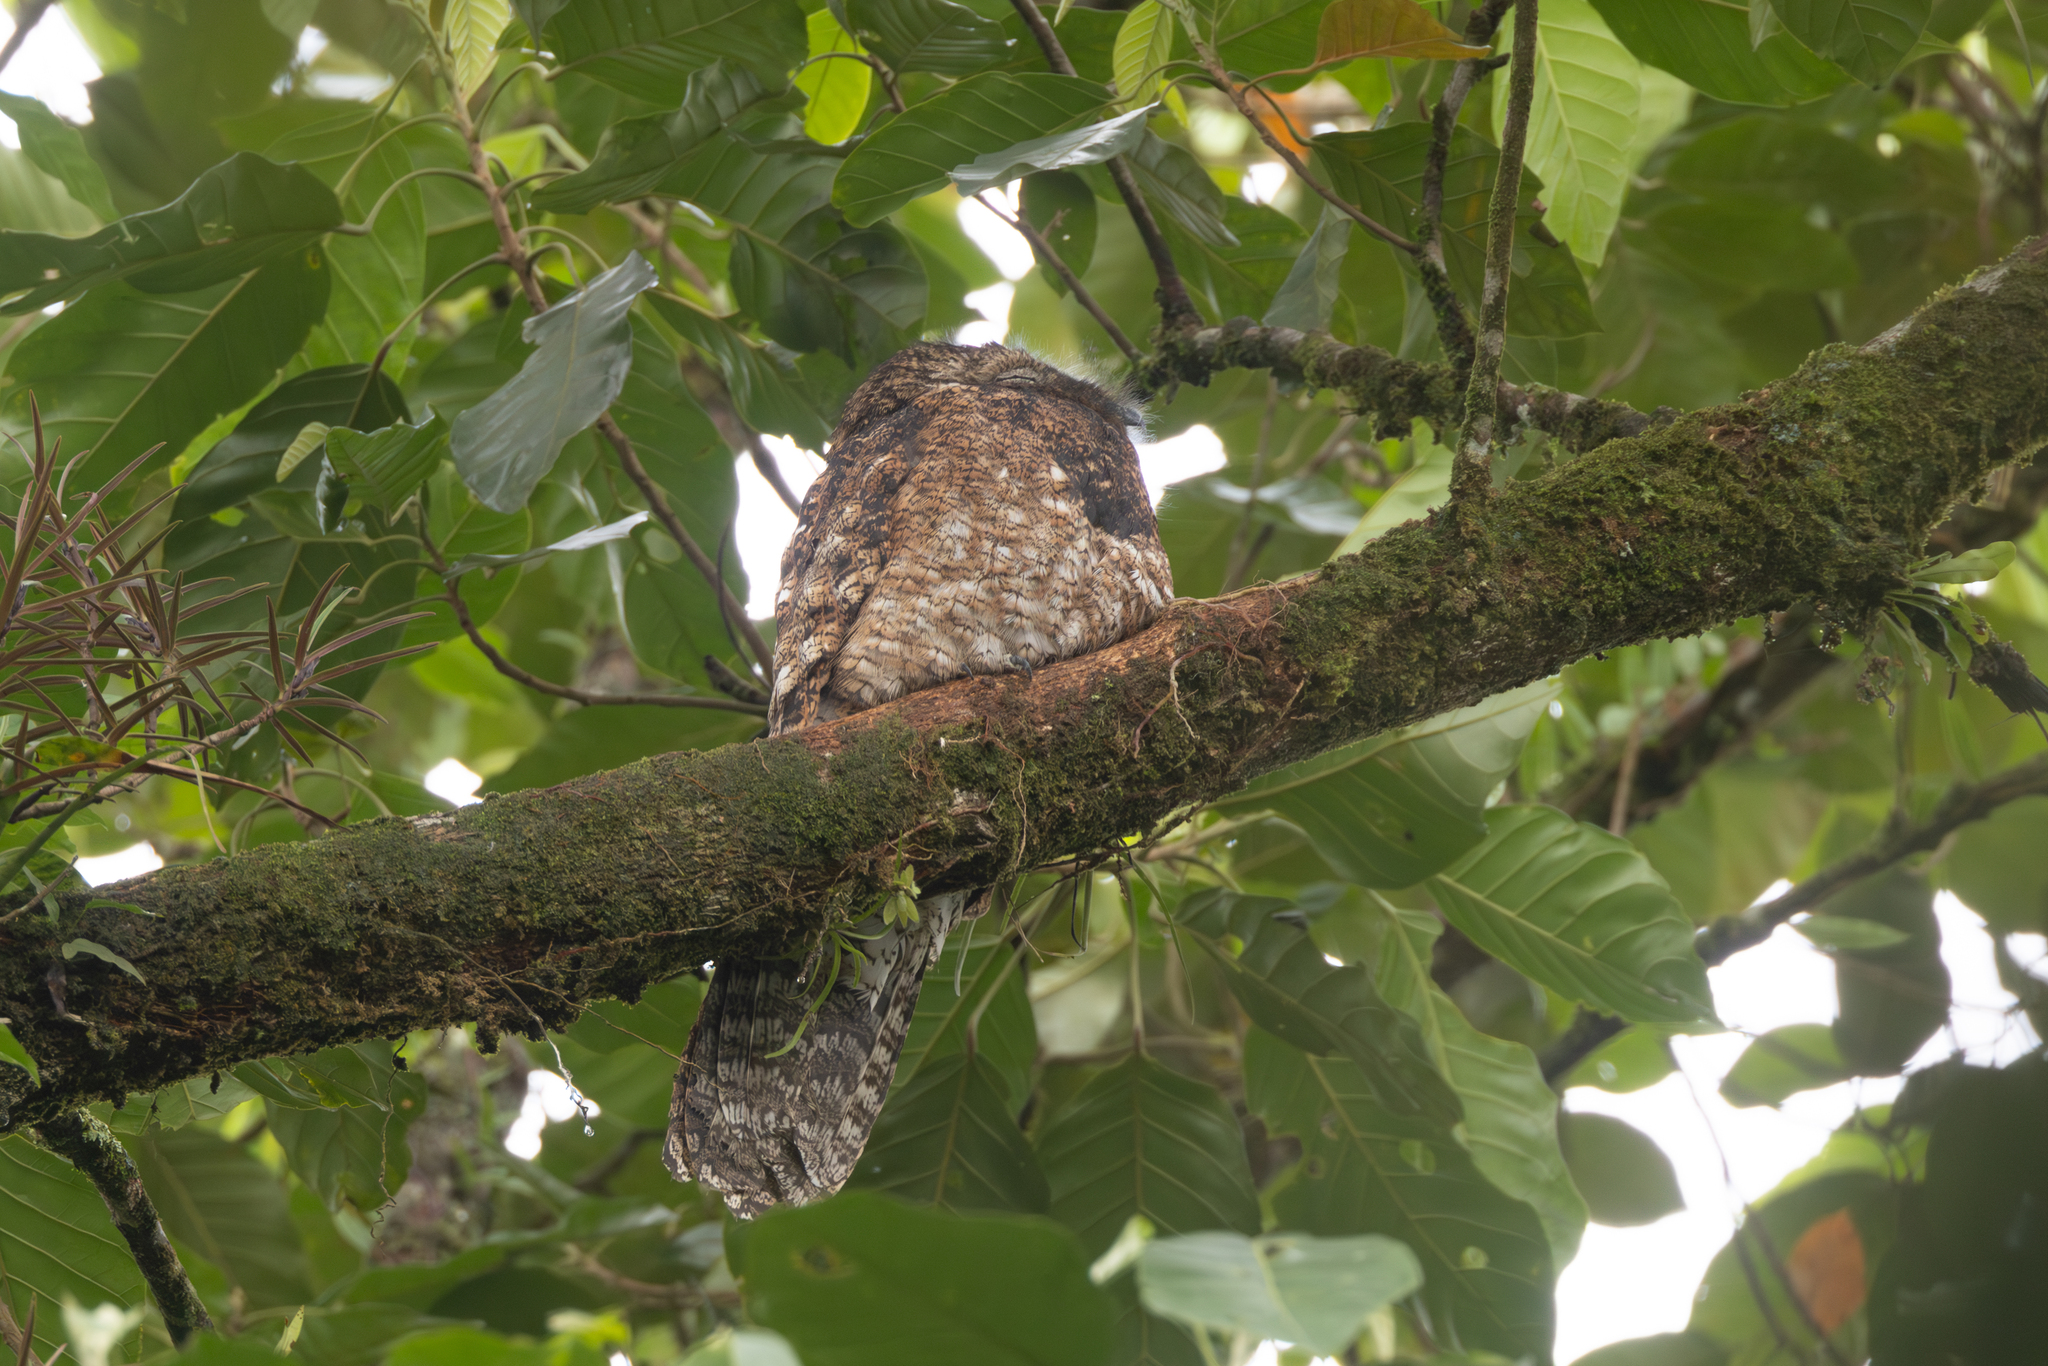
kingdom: Animalia
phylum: Chordata
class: Aves
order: Nyctibiiformes
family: Nyctibiidae
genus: Nyctibius
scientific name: Nyctibius grandis
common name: Great potoo
